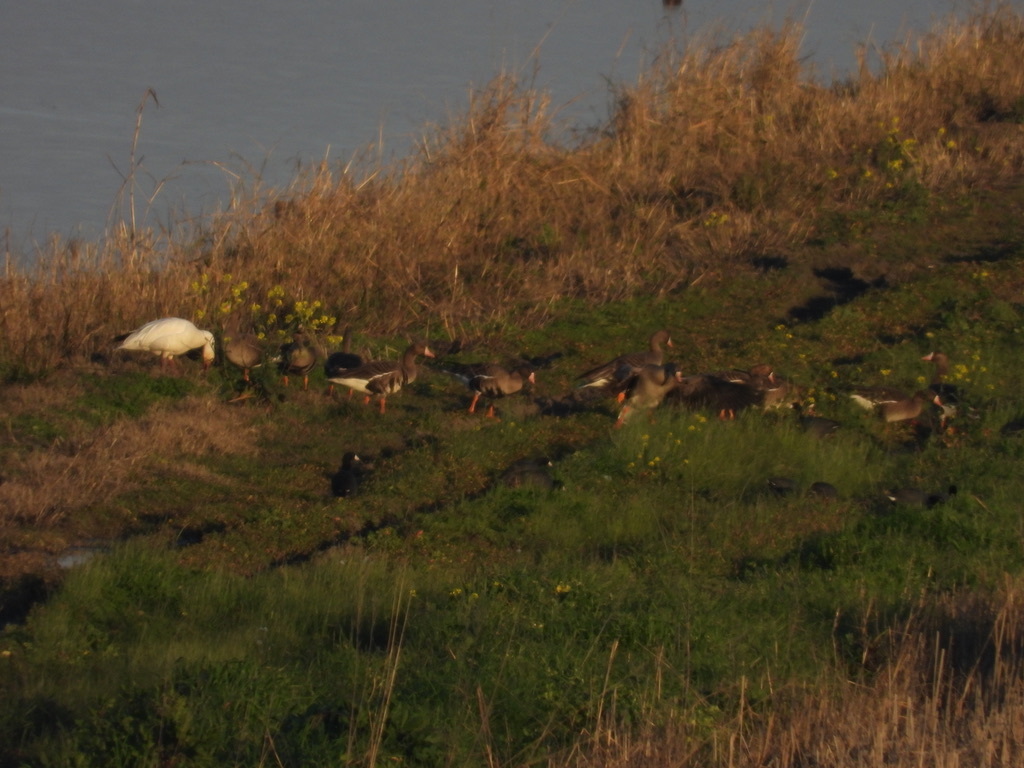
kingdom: Animalia
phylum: Chordata
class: Aves
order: Anseriformes
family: Anatidae
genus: Anser
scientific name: Anser albifrons
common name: Greater white-fronted goose
